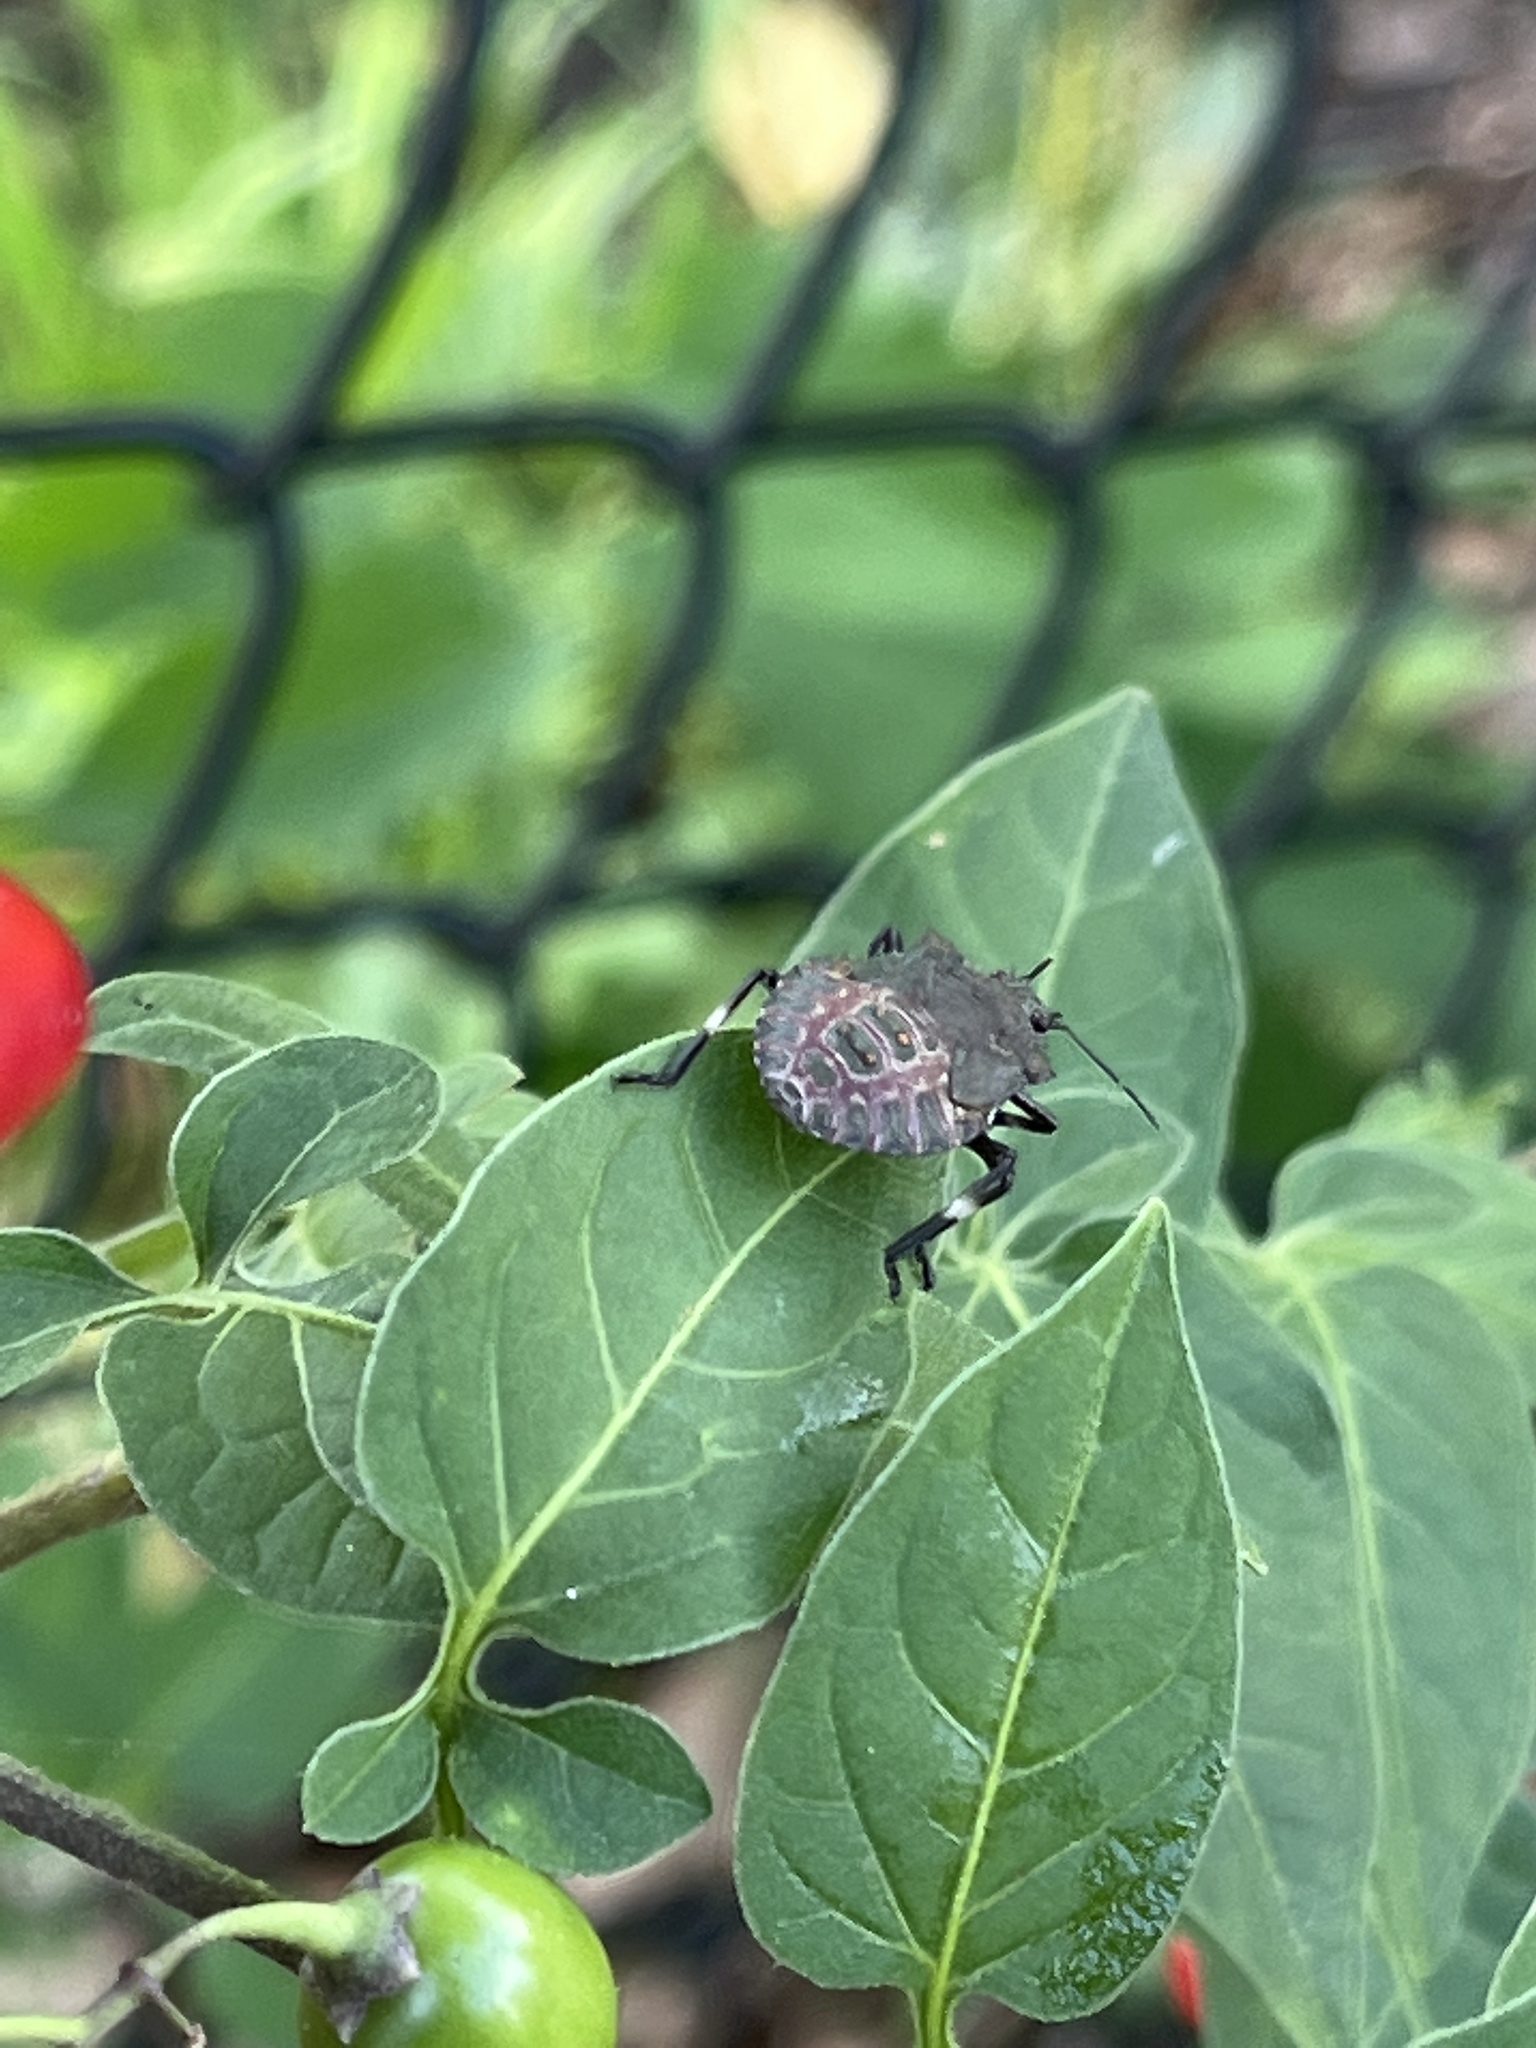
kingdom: Animalia
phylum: Arthropoda
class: Insecta
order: Hemiptera
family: Pentatomidae
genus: Halyomorpha
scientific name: Halyomorpha halys
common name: Brown marmorated stink bug
